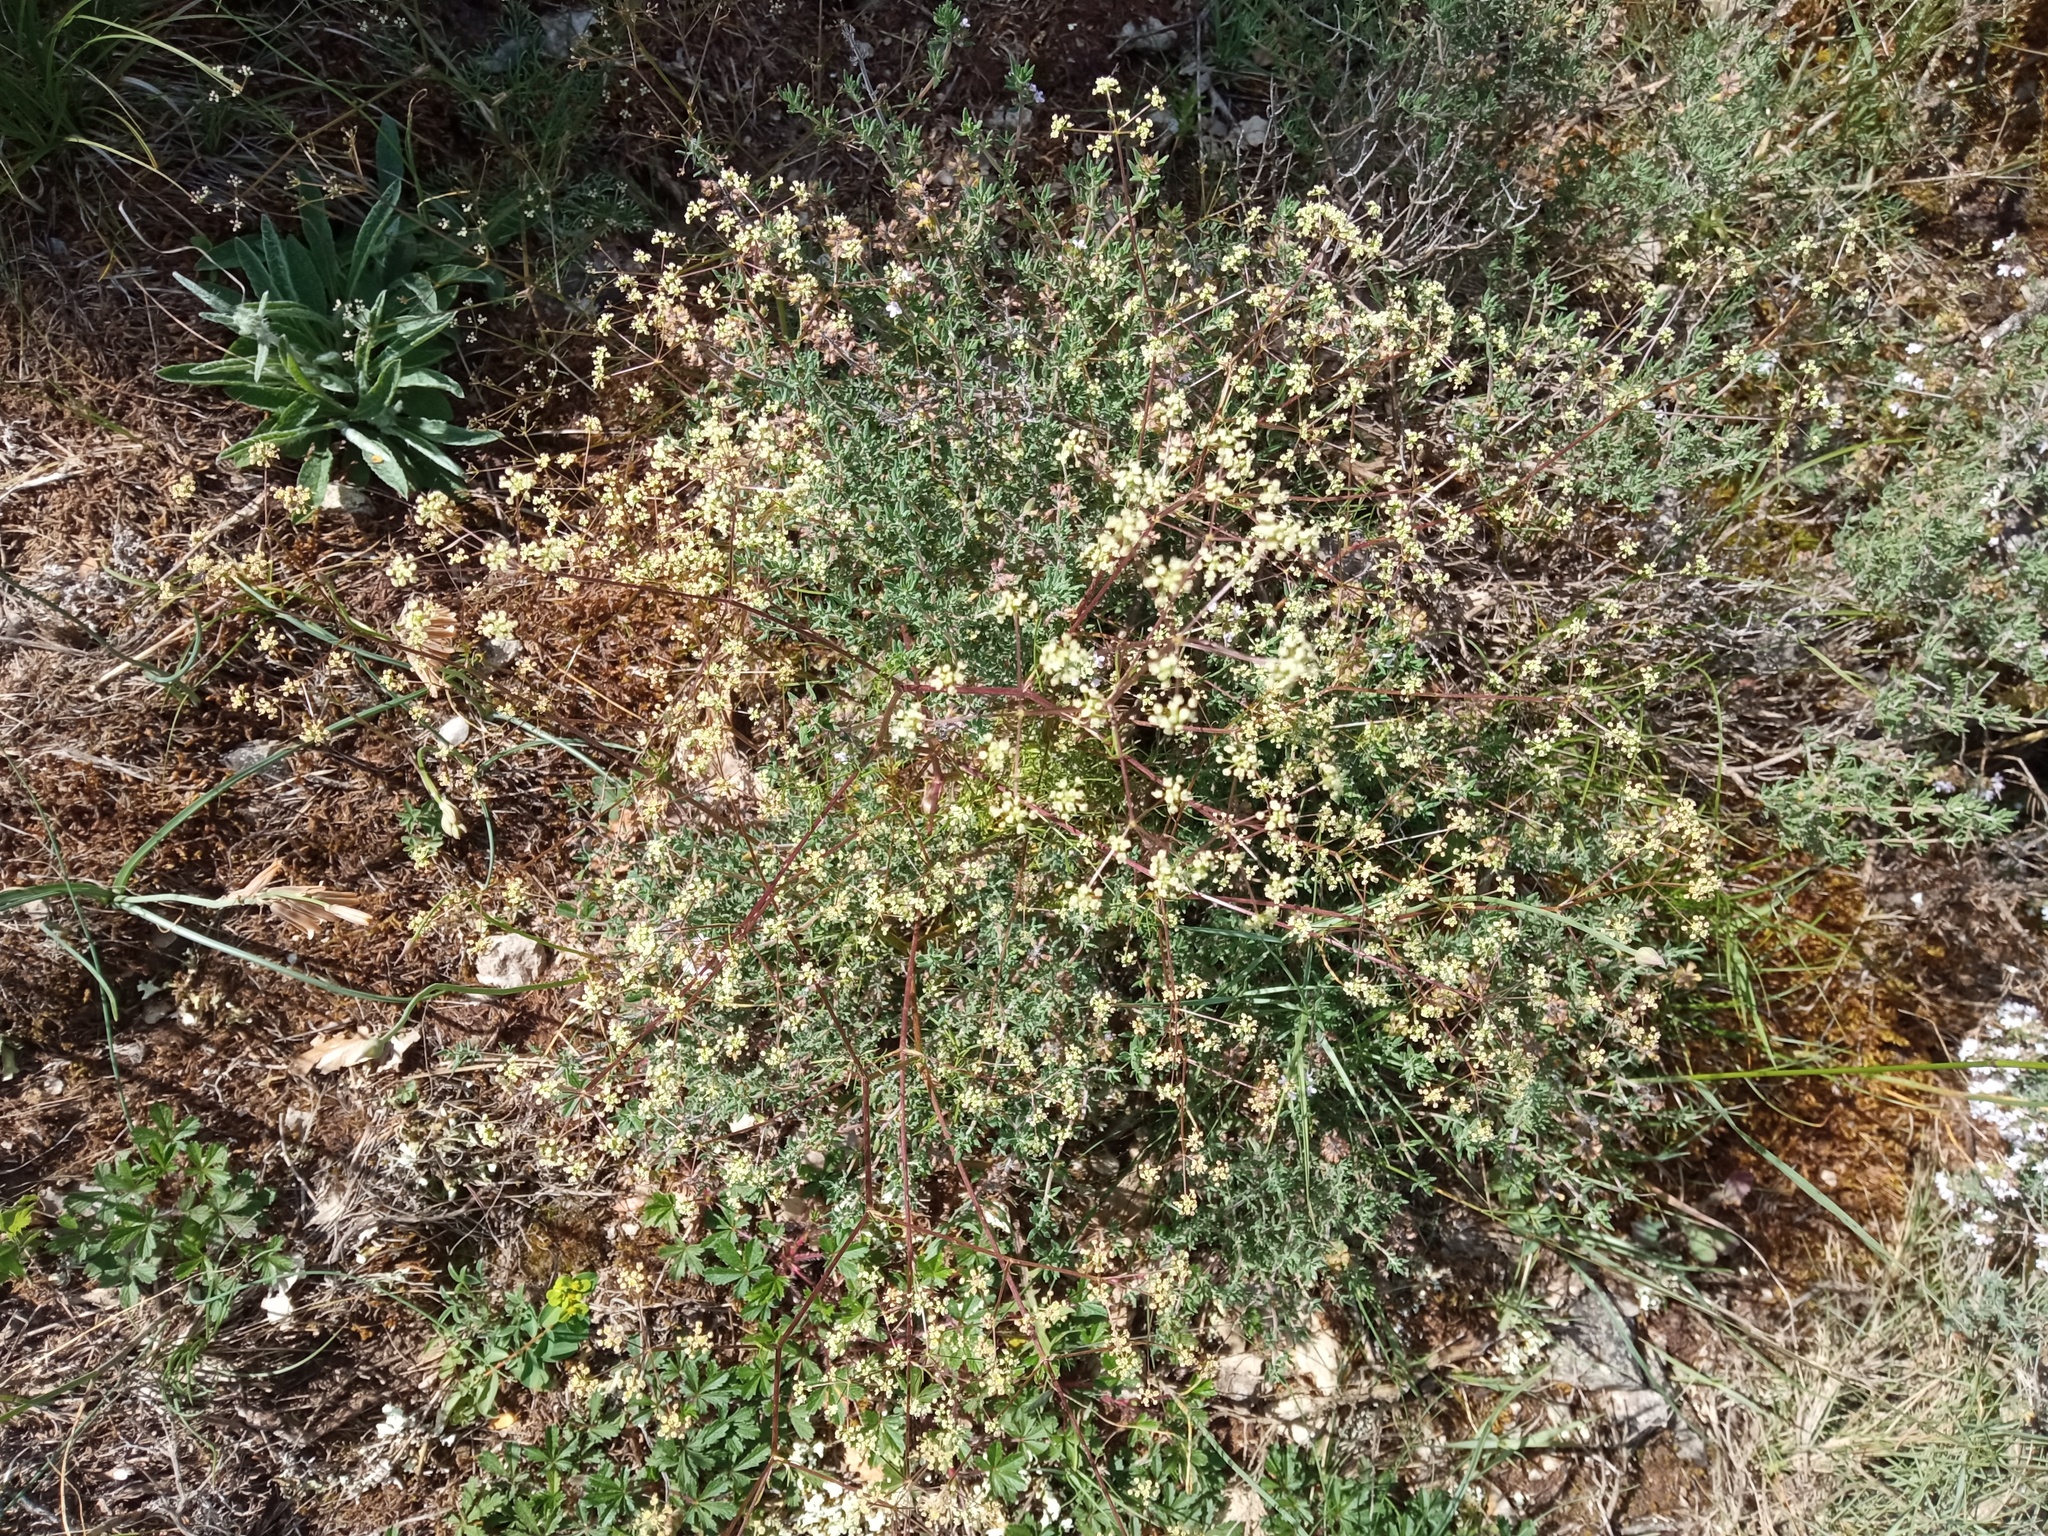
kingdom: Plantae
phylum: Tracheophyta
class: Magnoliopsida
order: Apiales
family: Apiaceae
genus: Trinia
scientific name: Trinia glauca
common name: Honewort
